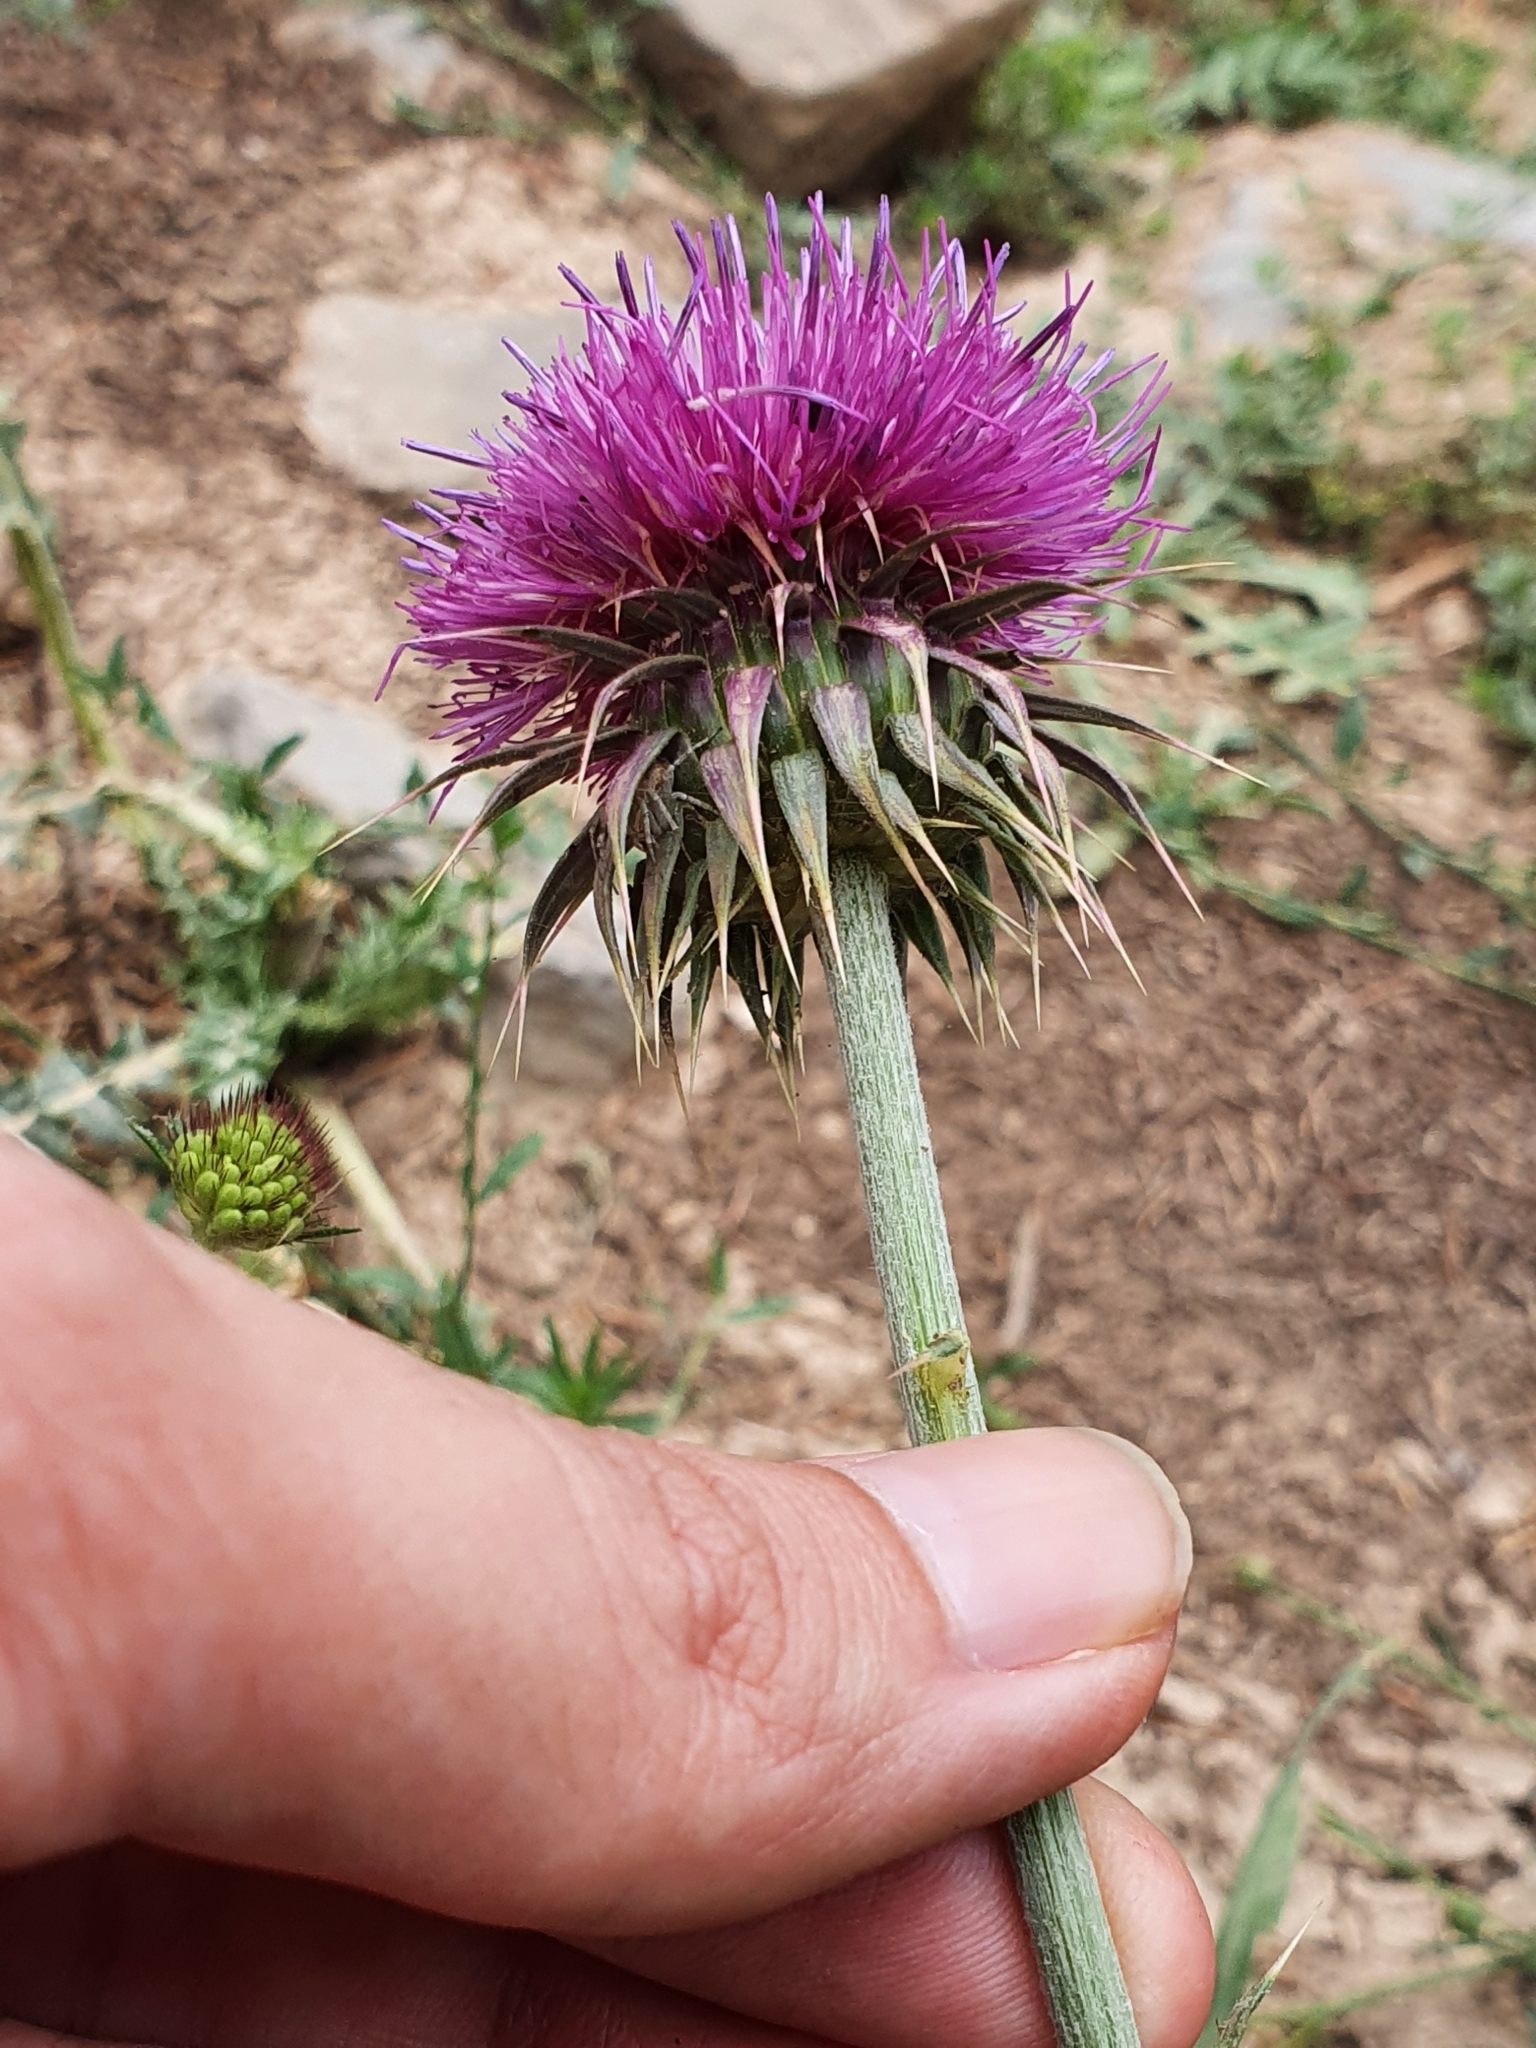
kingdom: Plantae
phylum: Tracheophyta
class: Magnoliopsida
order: Asterales
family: Asteraceae
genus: Carduus
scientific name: Carduus macrocephalus
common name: Giant thistle
